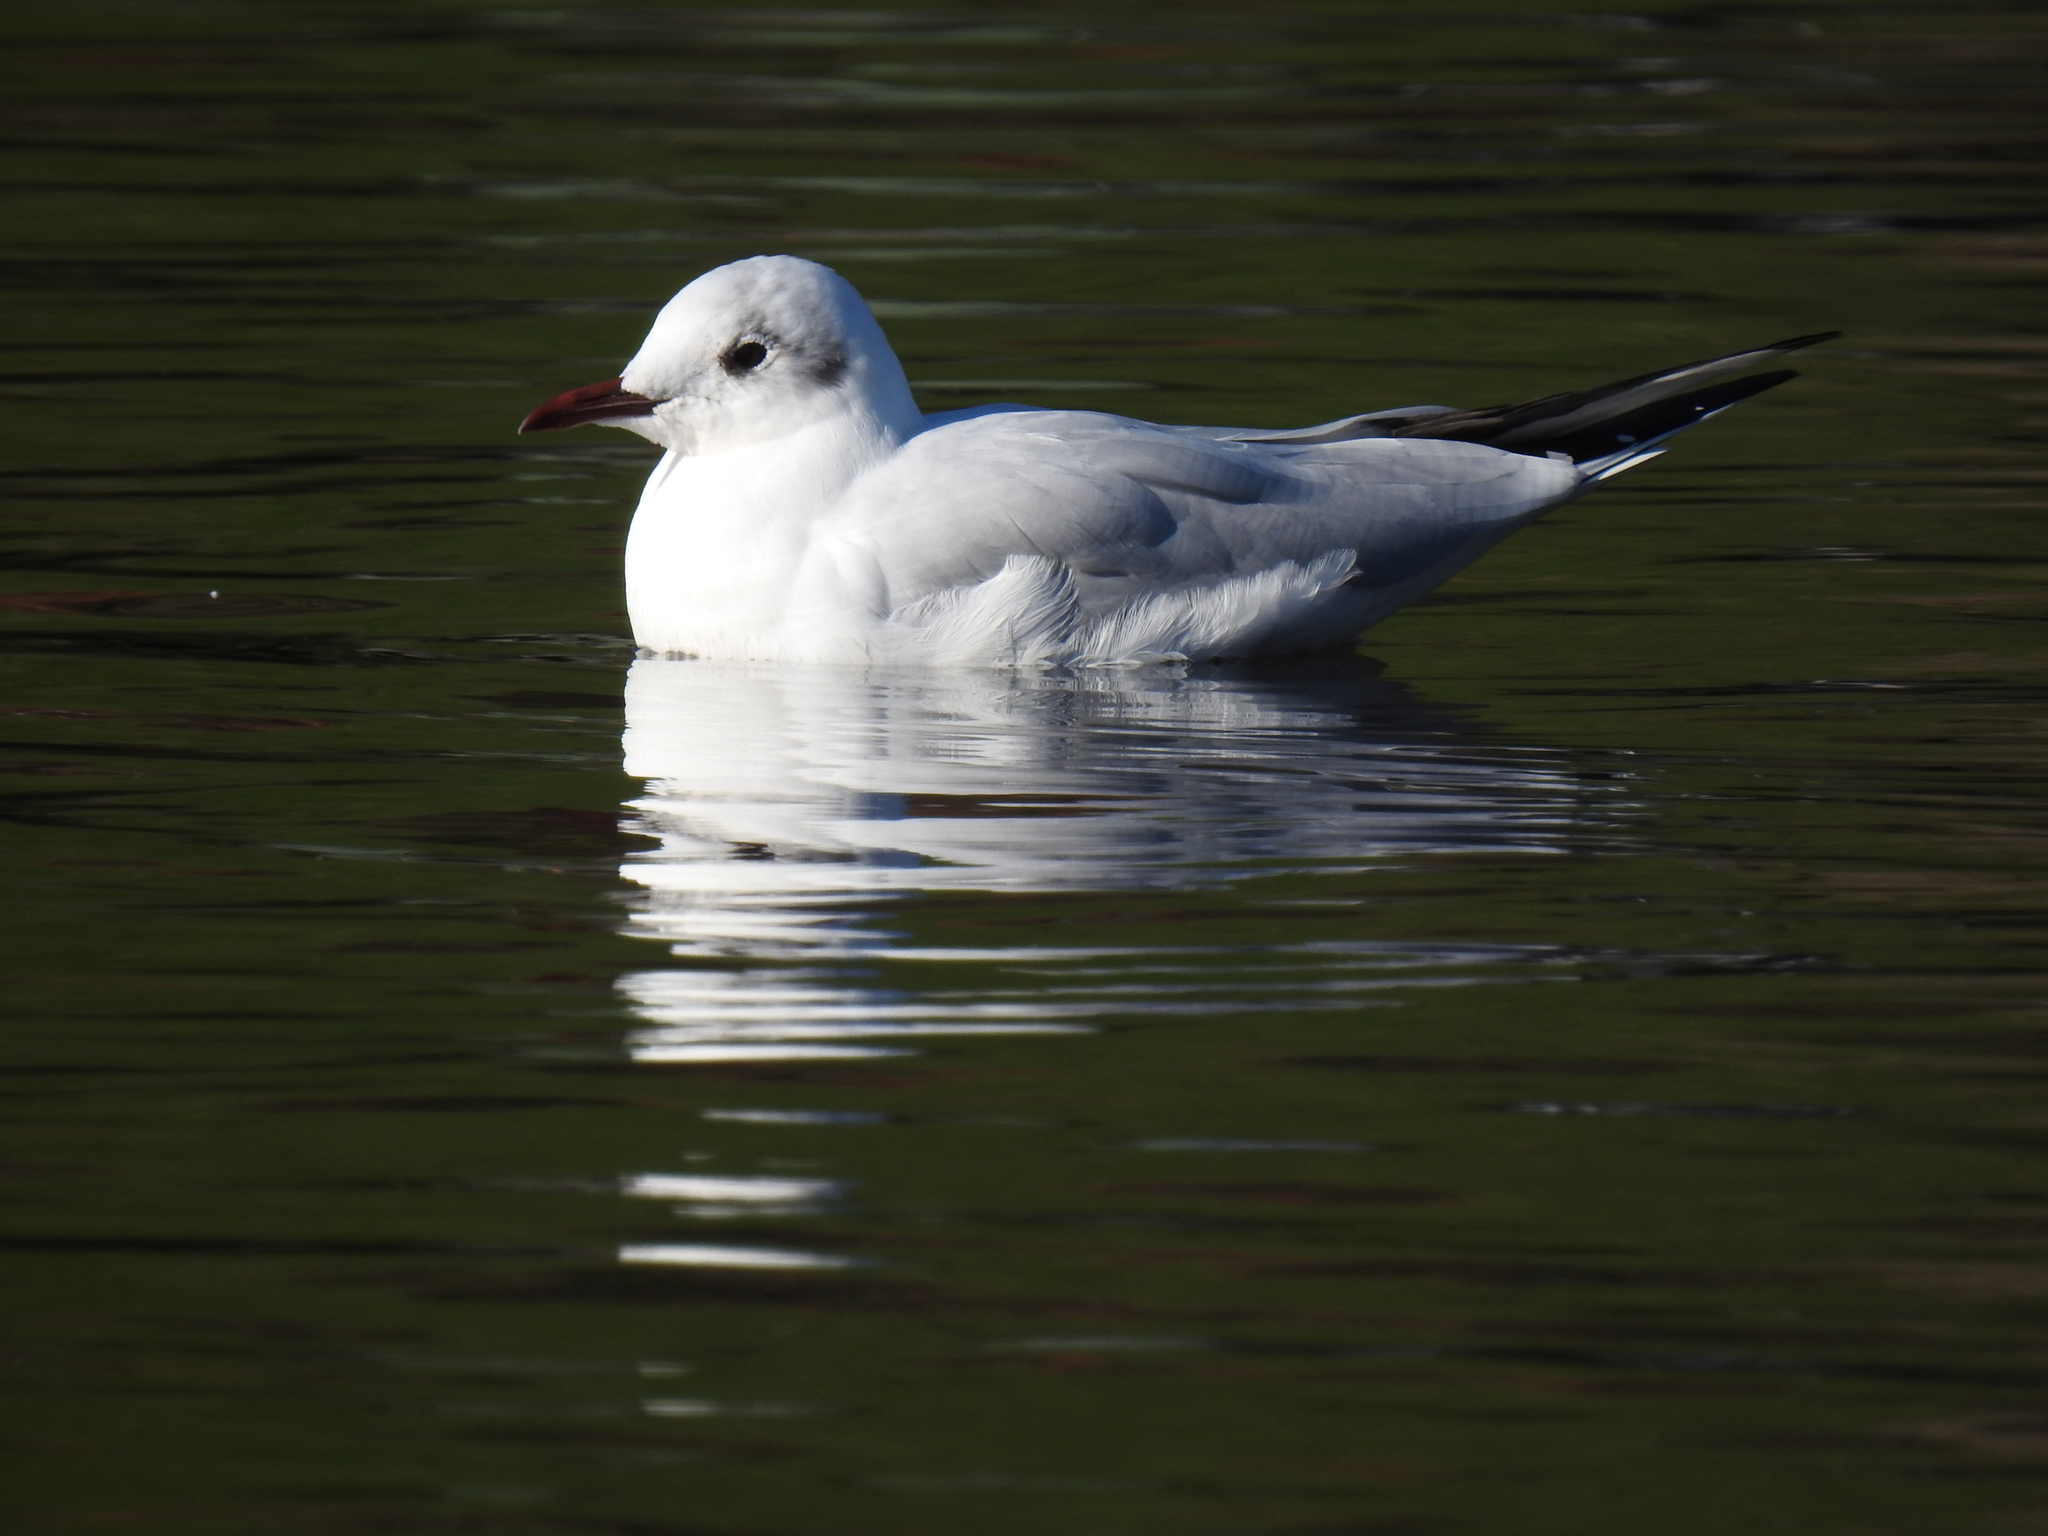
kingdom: Animalia
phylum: Chordata
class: Aves
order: Charadriiformes
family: Laridae
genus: Chroicocephalus
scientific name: Chroicocephalus ridibundus
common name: Black-headed gull
